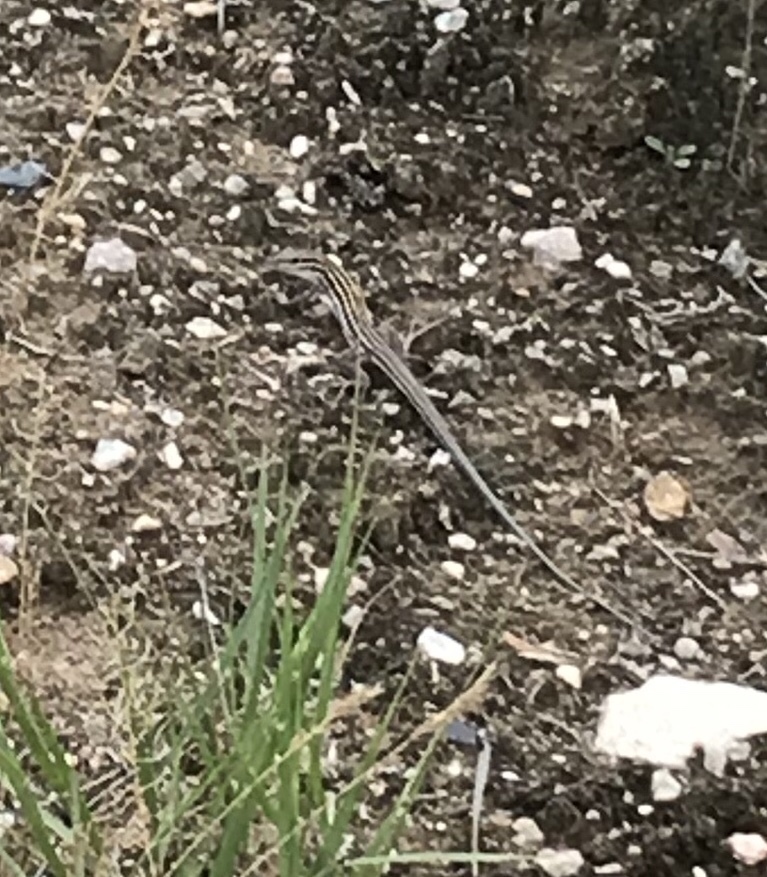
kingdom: Animalia
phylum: Chordata
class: Squamata
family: Teiidae
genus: Aspidoscelis
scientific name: Aspidoscelis velox
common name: Plateau striped whiptail
